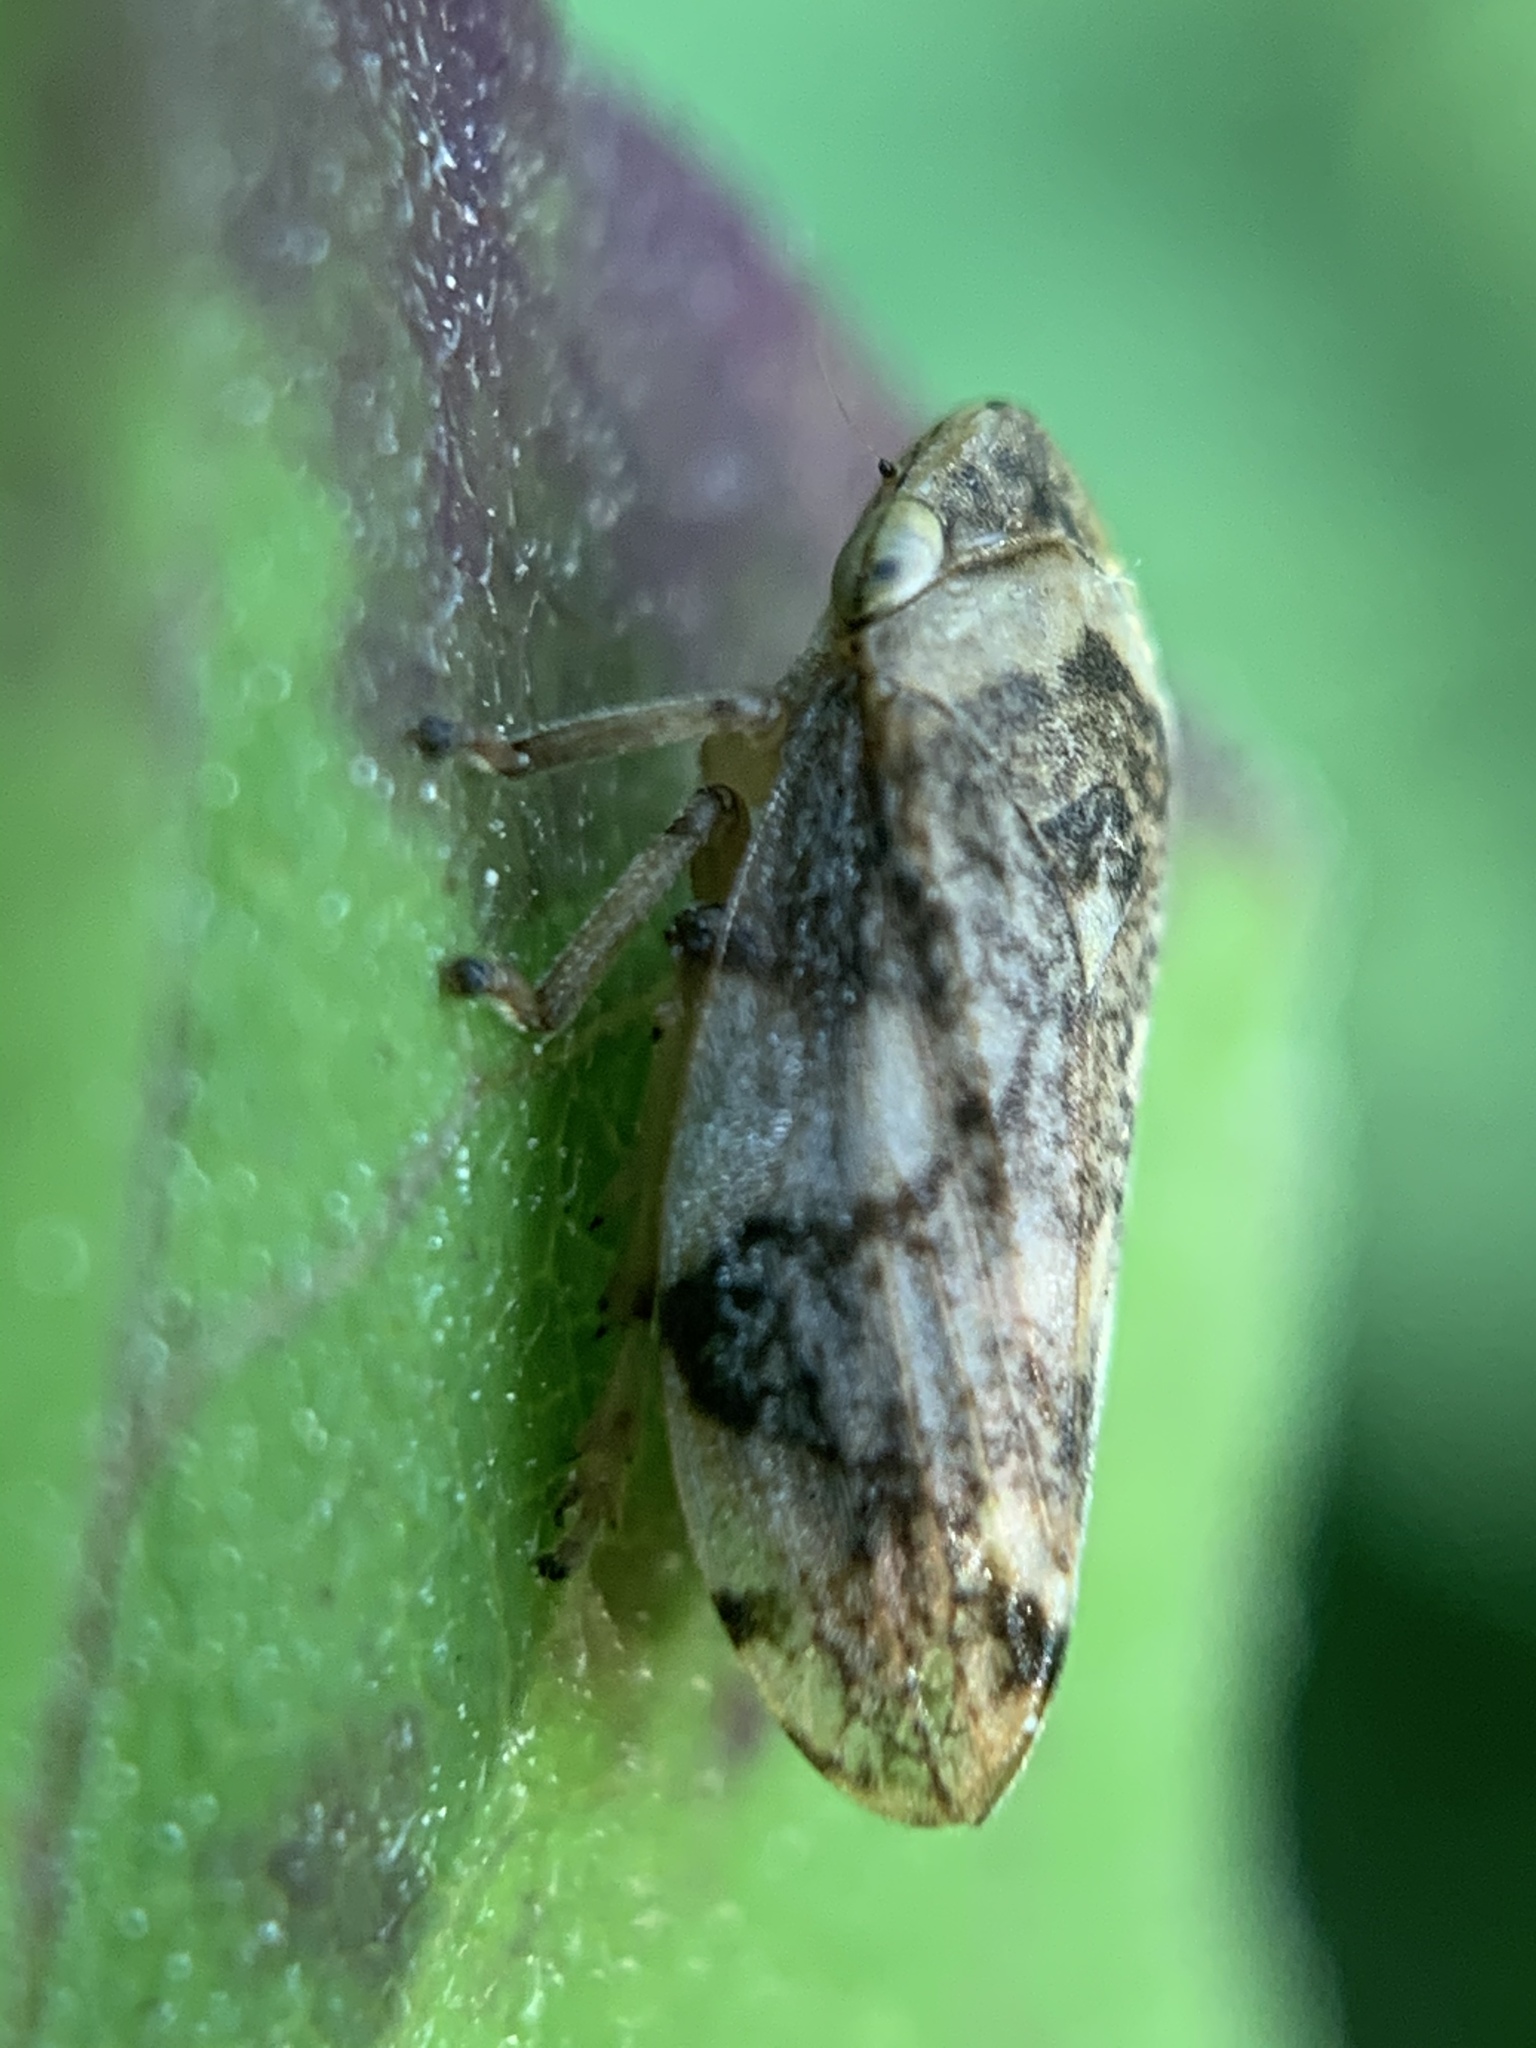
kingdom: Animalia
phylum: Arthropoda
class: Insecta
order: Hemiptera
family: Aphrophoridae
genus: Philaenus
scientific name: Philaenus spumarius
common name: Meadow spittlebug
